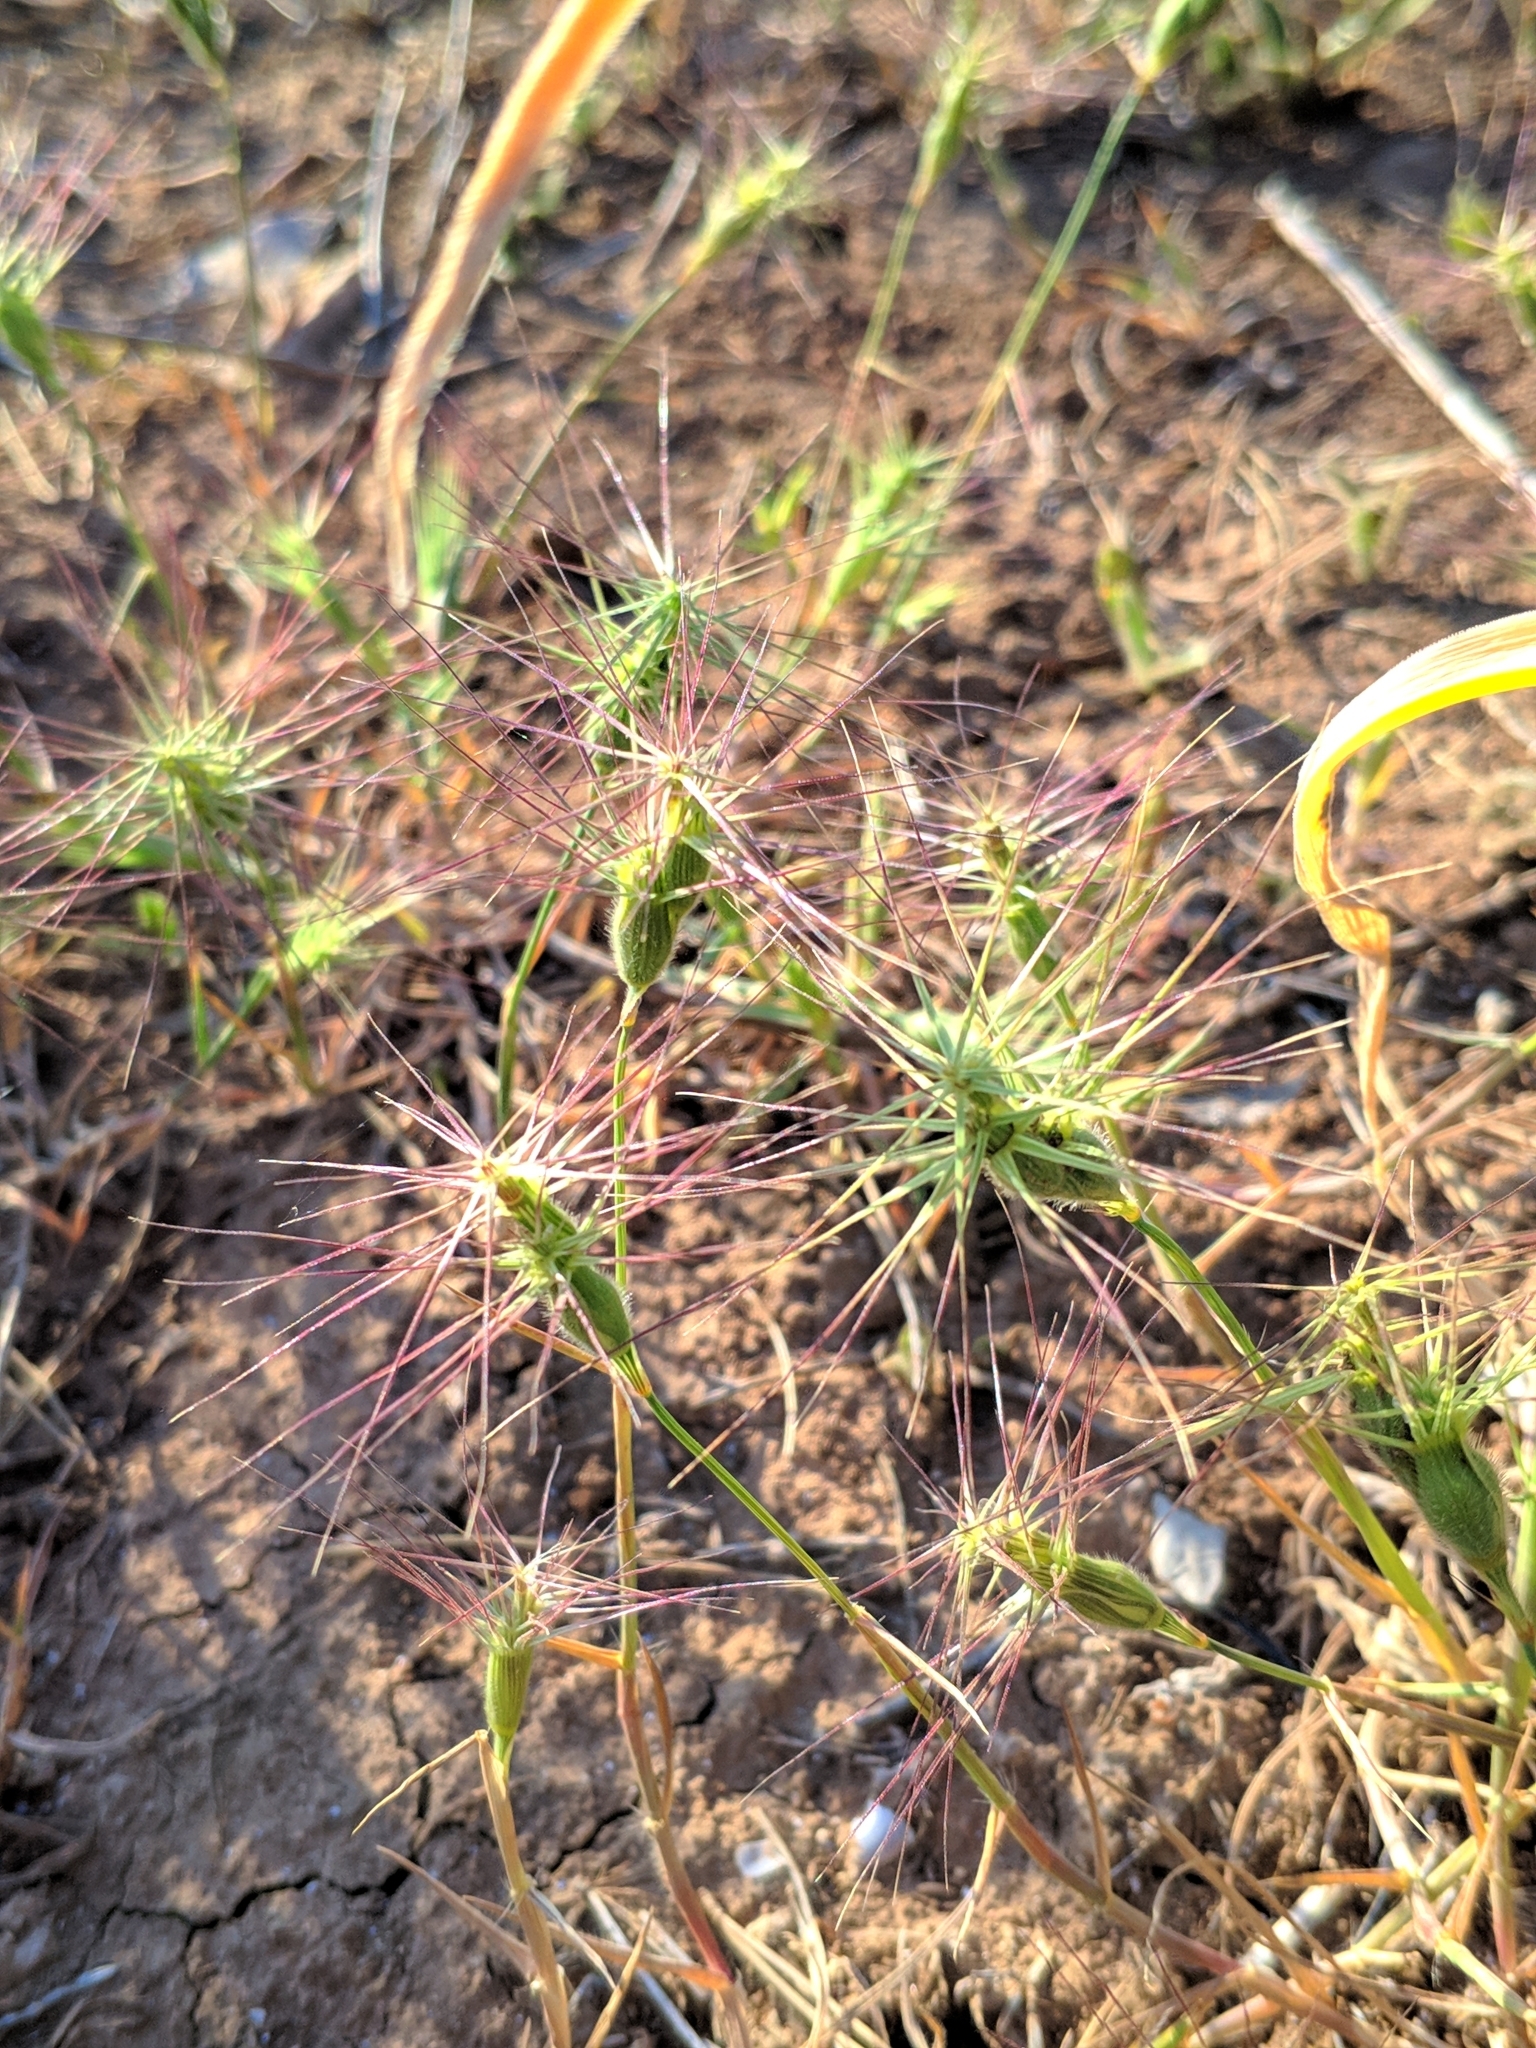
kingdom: Plantae
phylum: Tracheophyta
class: Liliopsida
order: Poales
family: Poaceae
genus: Aegilops
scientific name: Aegilops geniculata
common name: Ovate goat grass
